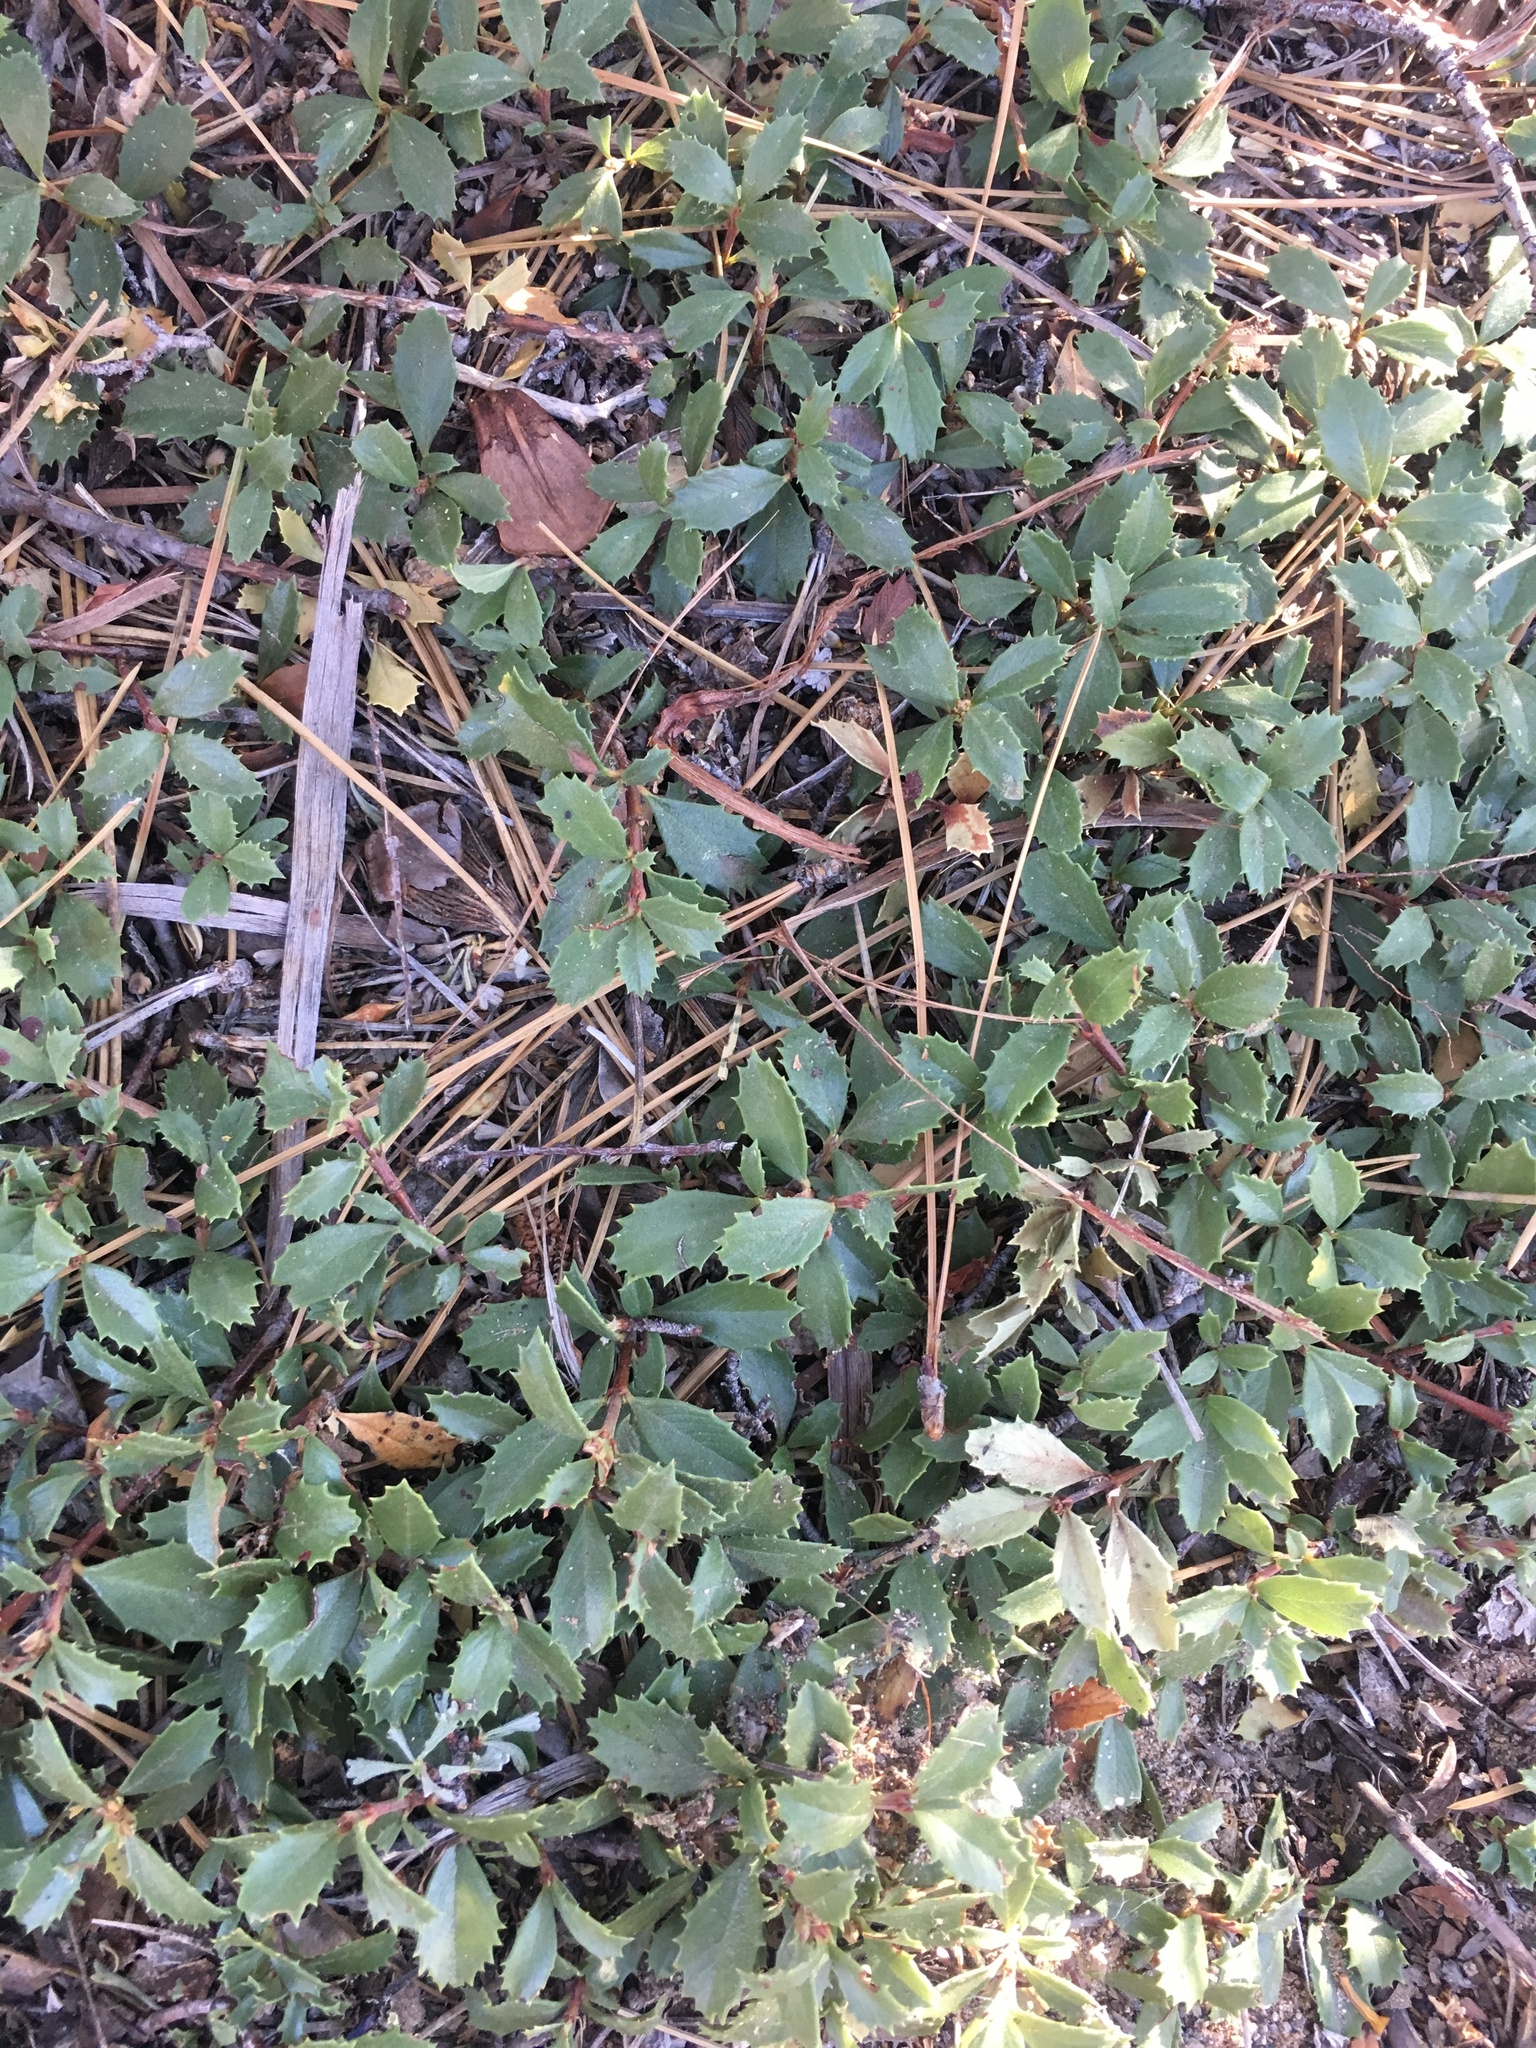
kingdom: Plantae
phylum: Tracheophyta
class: Magnoliopsida
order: Rosales
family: Rhamnaceae
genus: Ceanothus
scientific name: Ceanothus prostratus
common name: Mahala-mat
